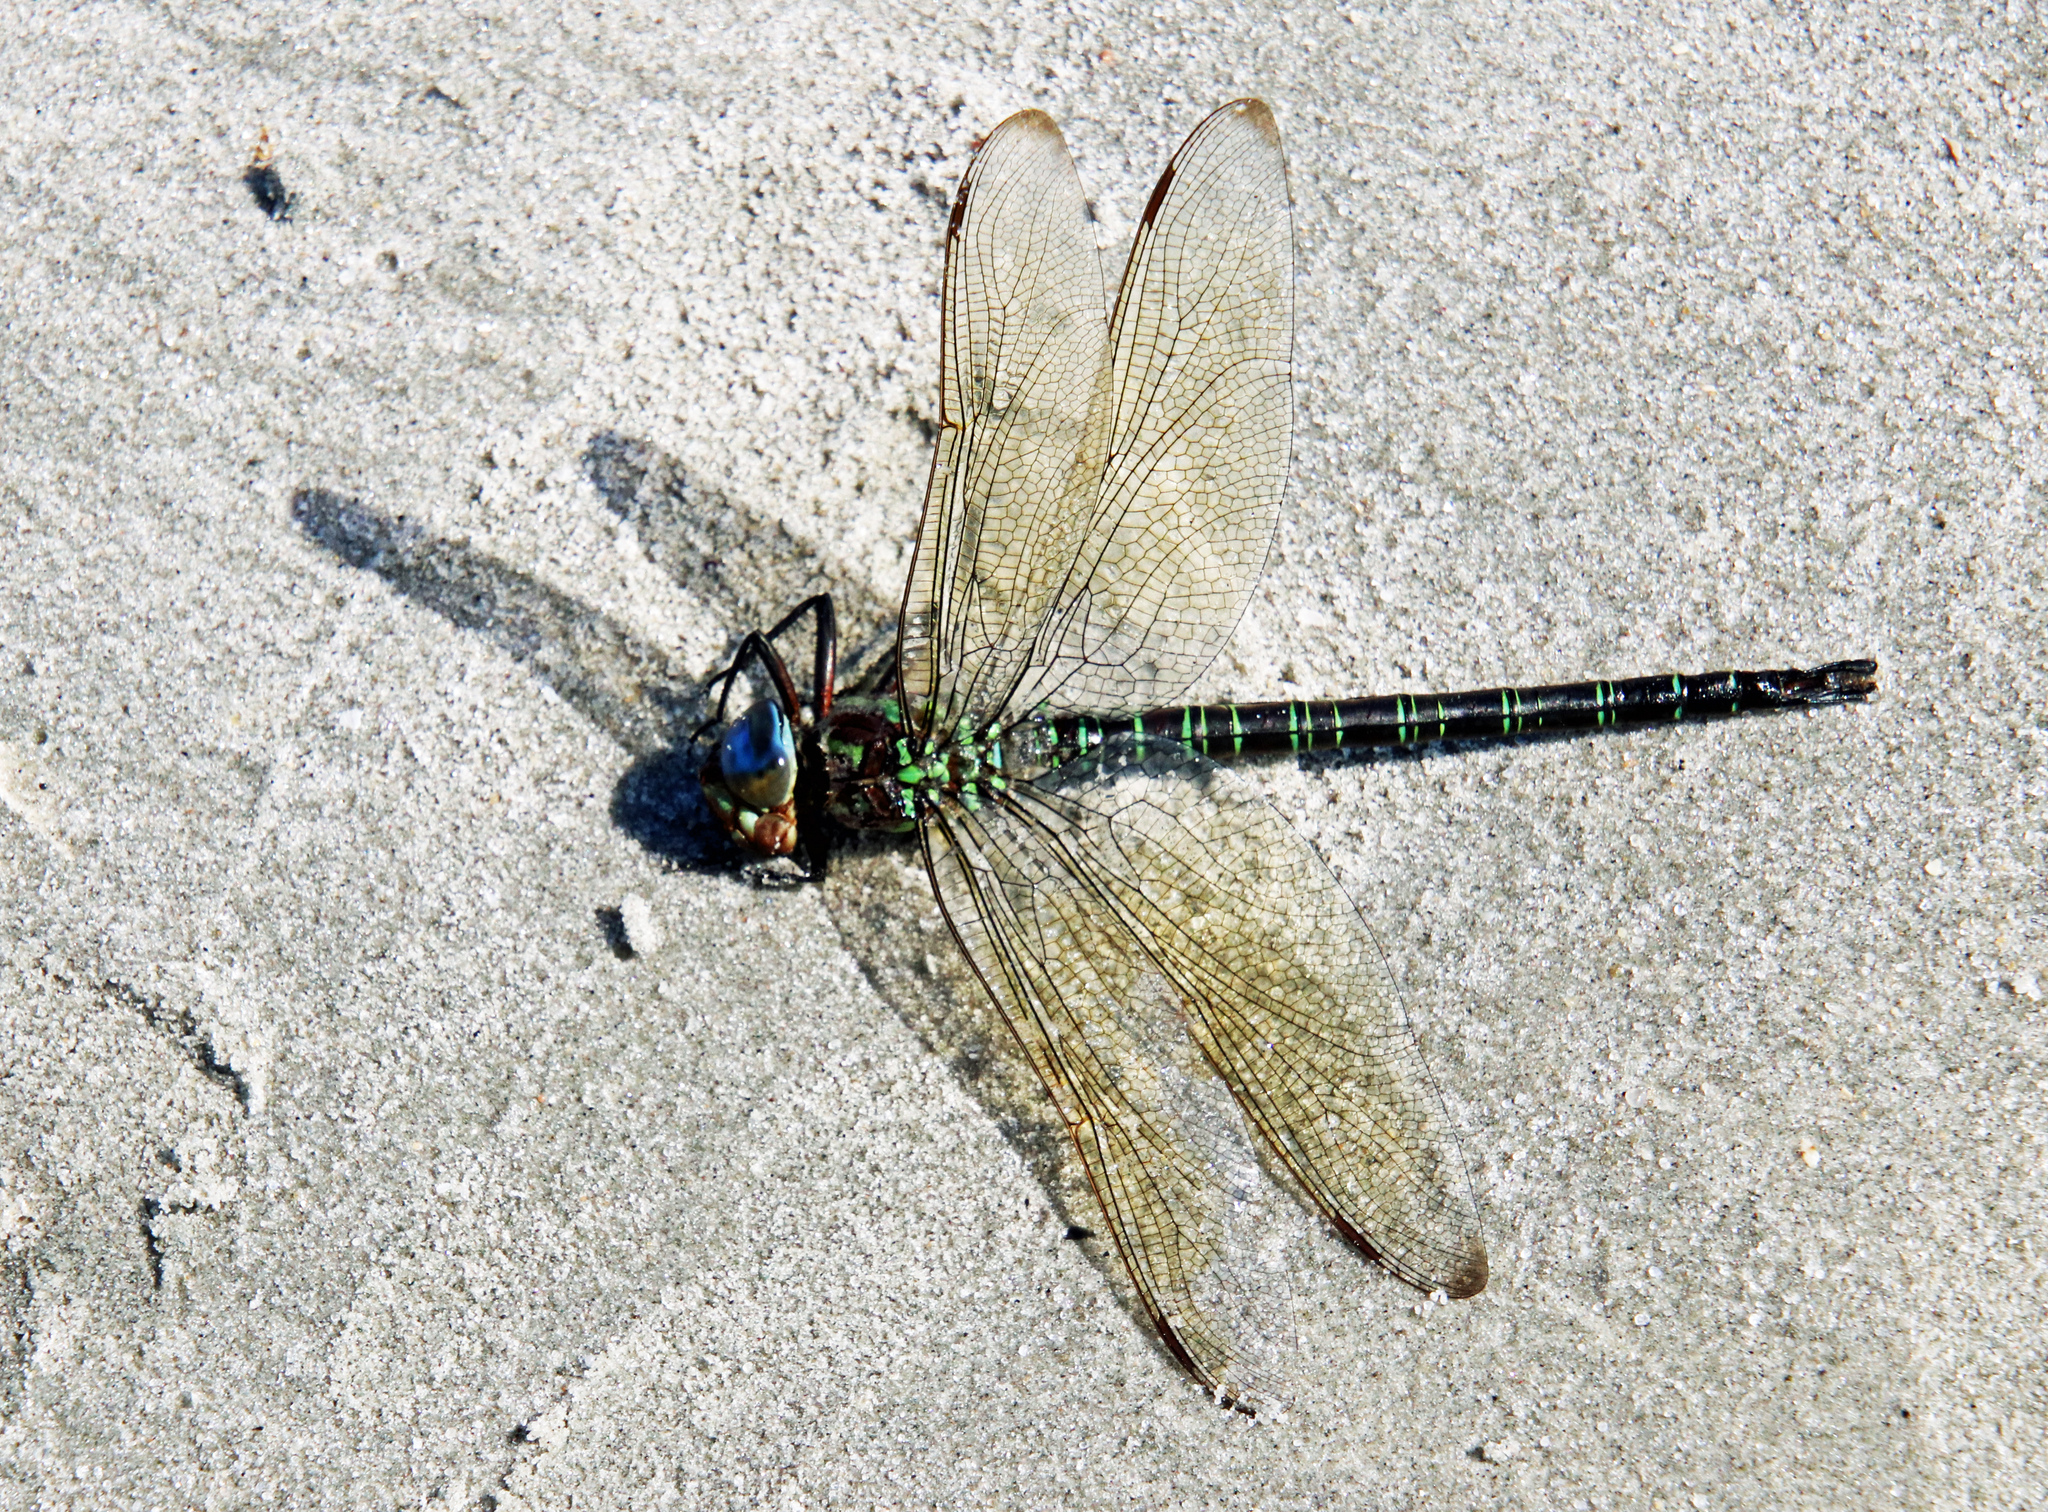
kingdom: Animalia
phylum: Arthropoda
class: Insecta
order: Odonata
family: Aeshnidae
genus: Epiaeschna
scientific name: Epiaeschna heros
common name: Swamp darner
